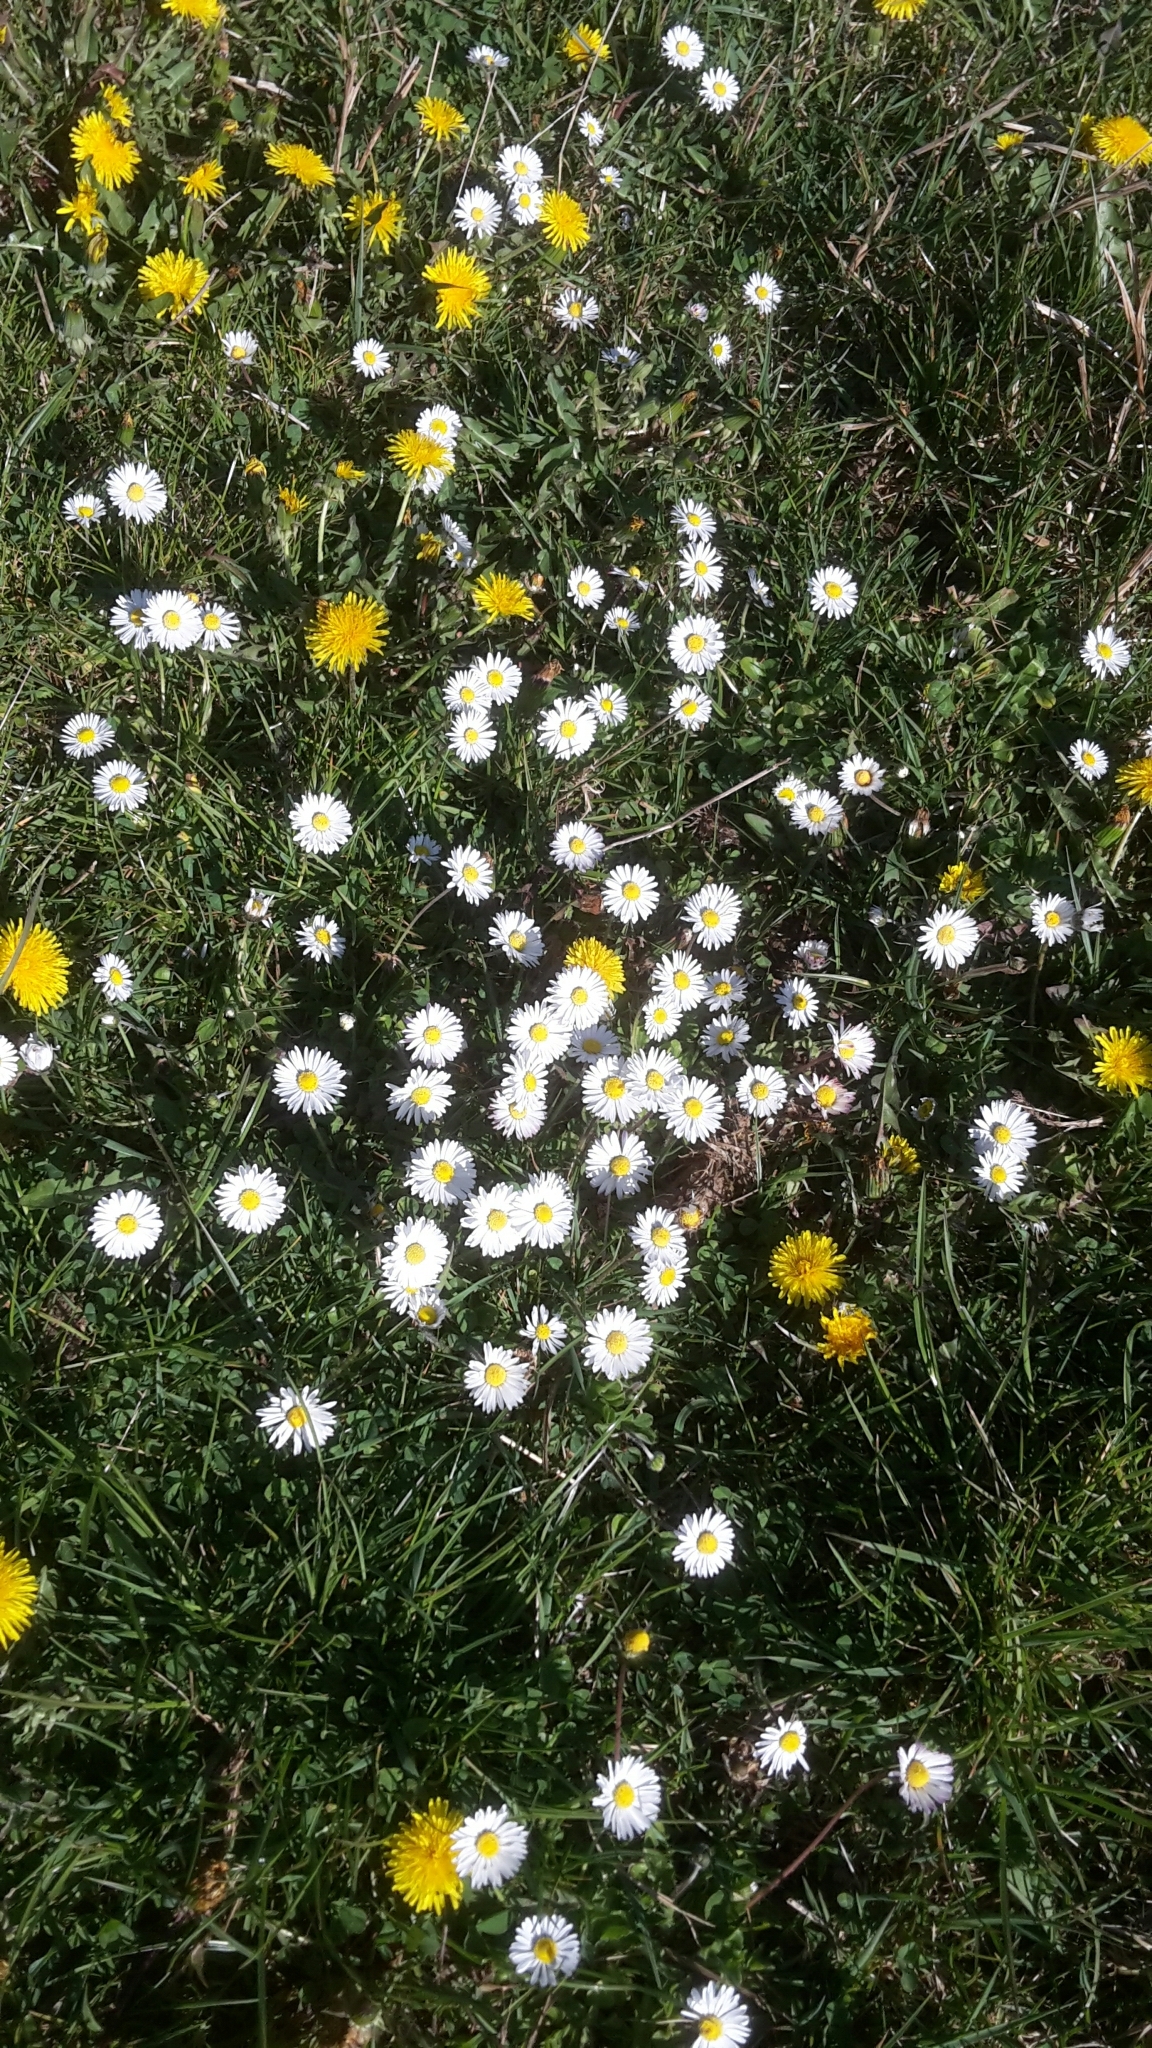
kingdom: Plantae
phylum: Tracheophyta
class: Magnoliopsida
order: Asterales
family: Asteraceae
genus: Bellis
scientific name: Bellis perennis
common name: Lawndaisy
